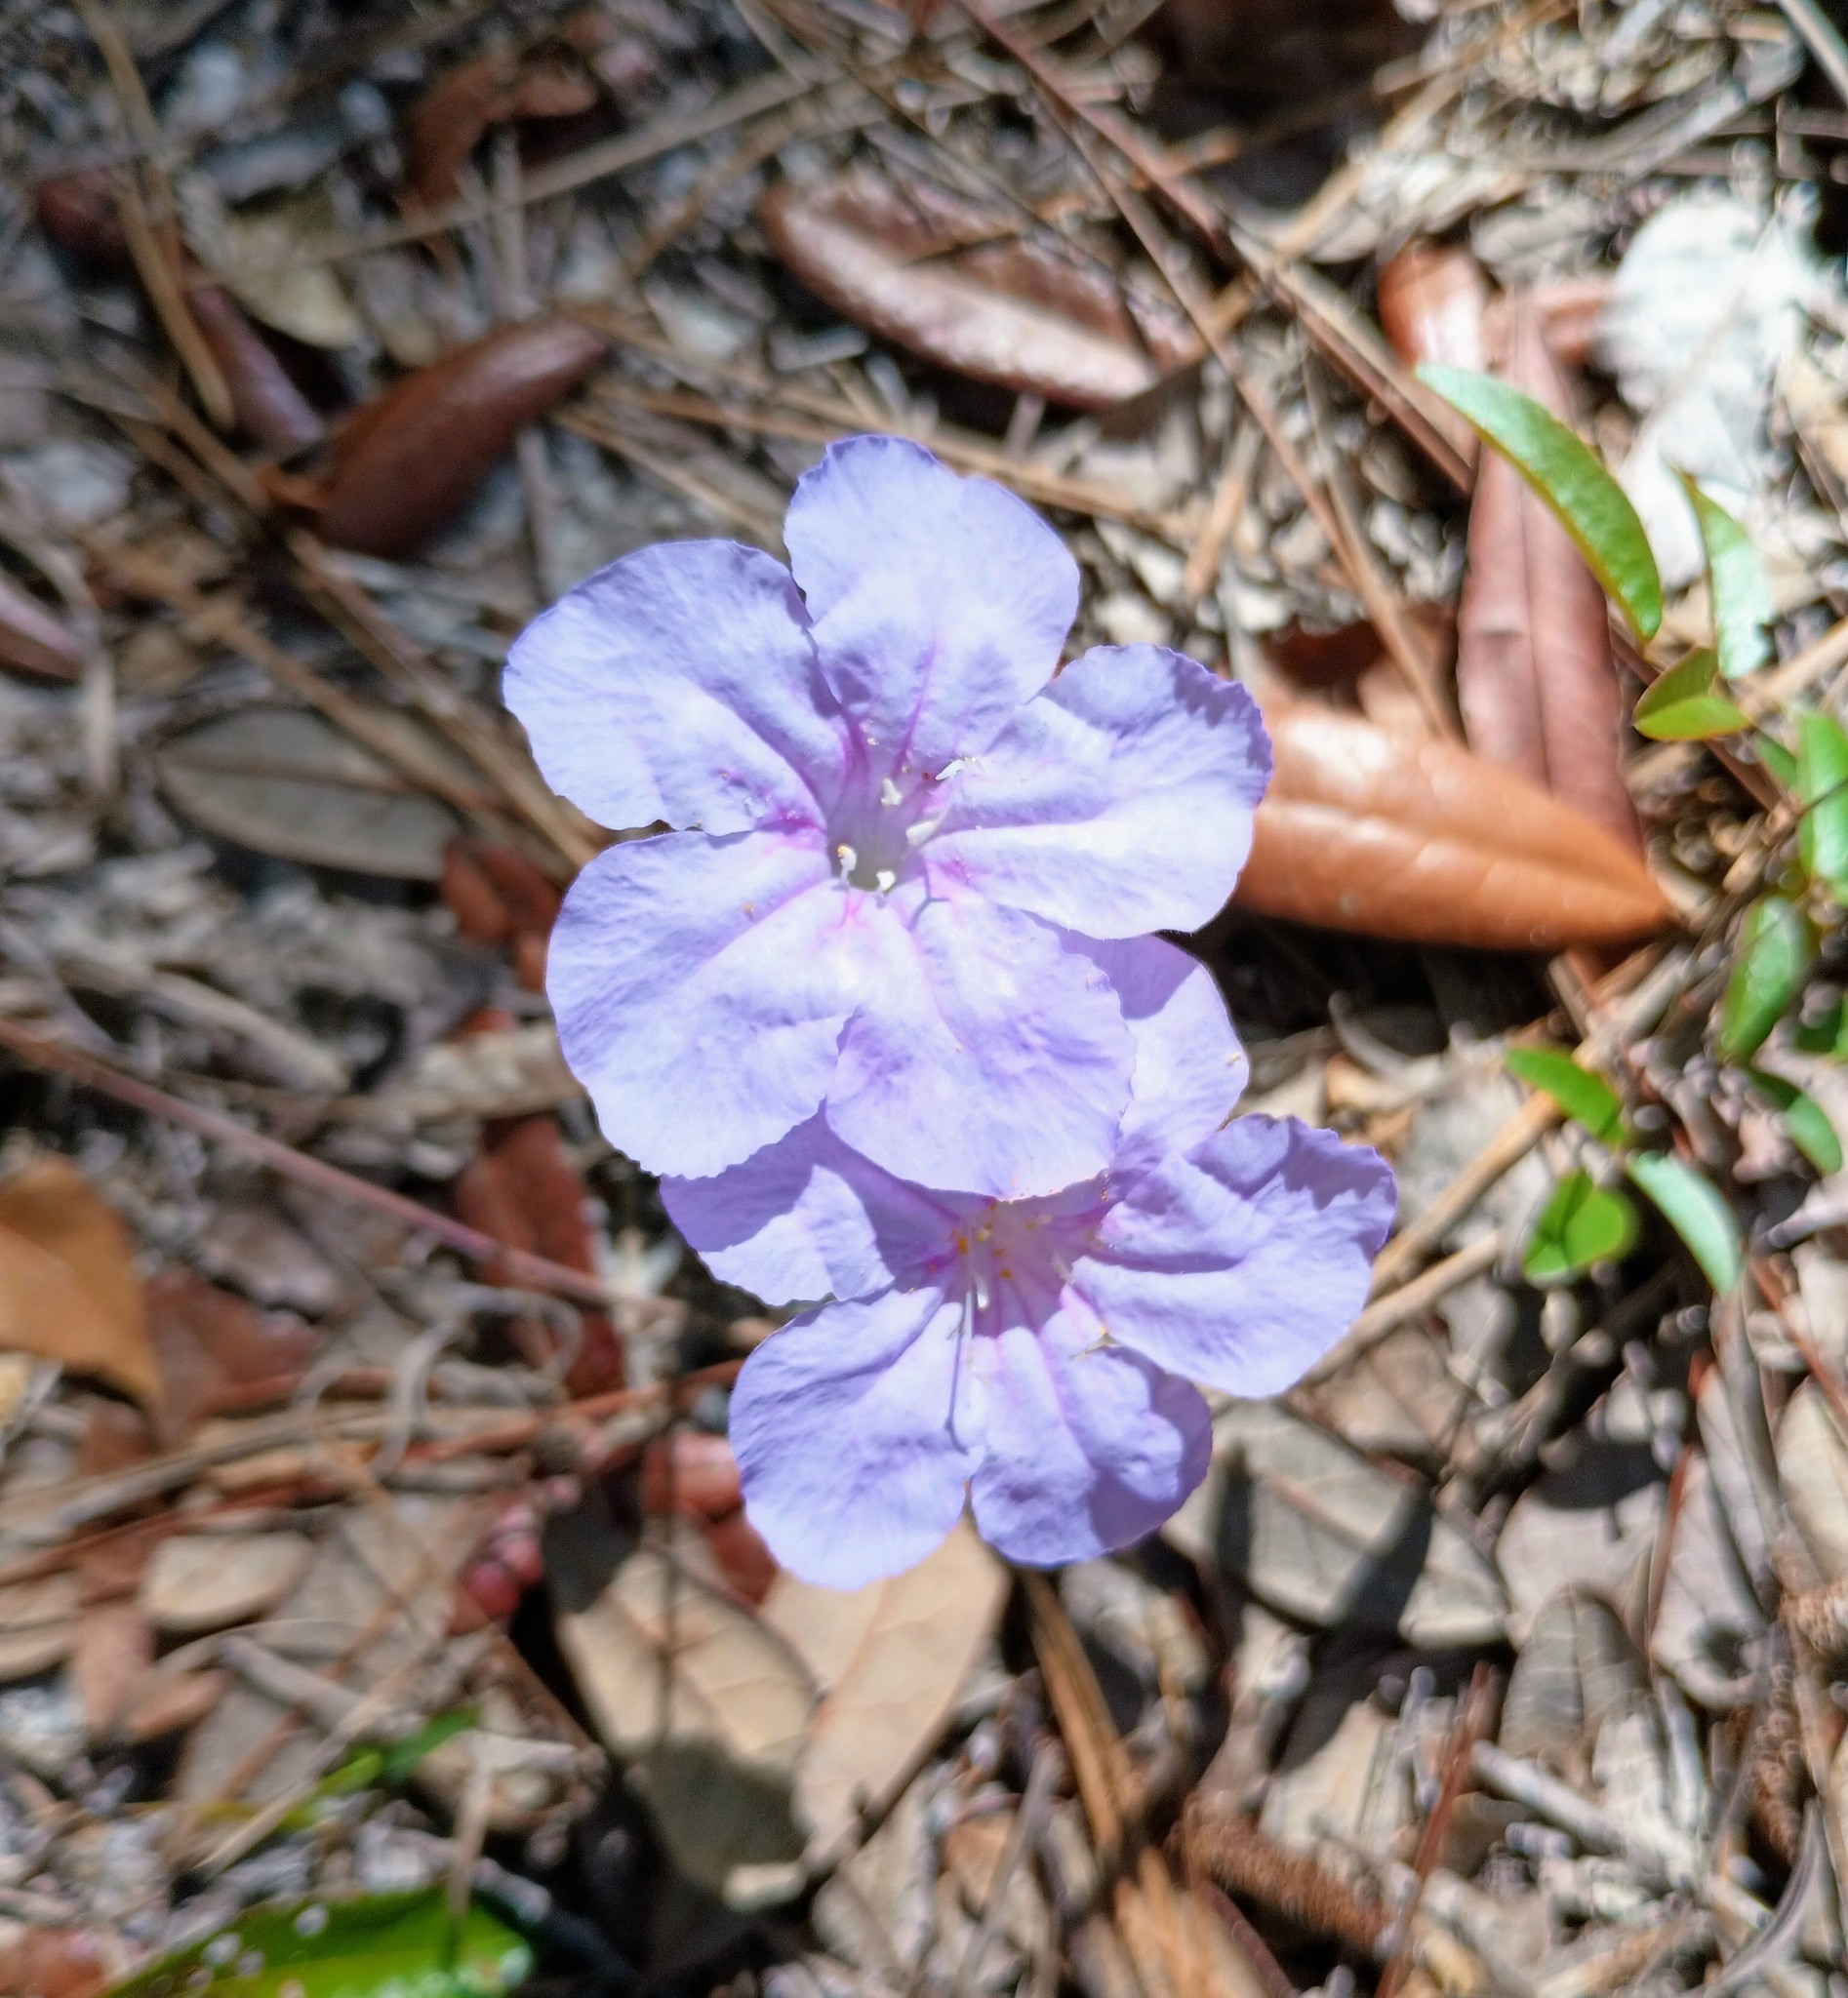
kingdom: Plantae
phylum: Tracheophyta
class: Magnoliopsida
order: Lamiales
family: Acanthaceae
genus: Ruellia
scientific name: Ruellia caroliniensis
